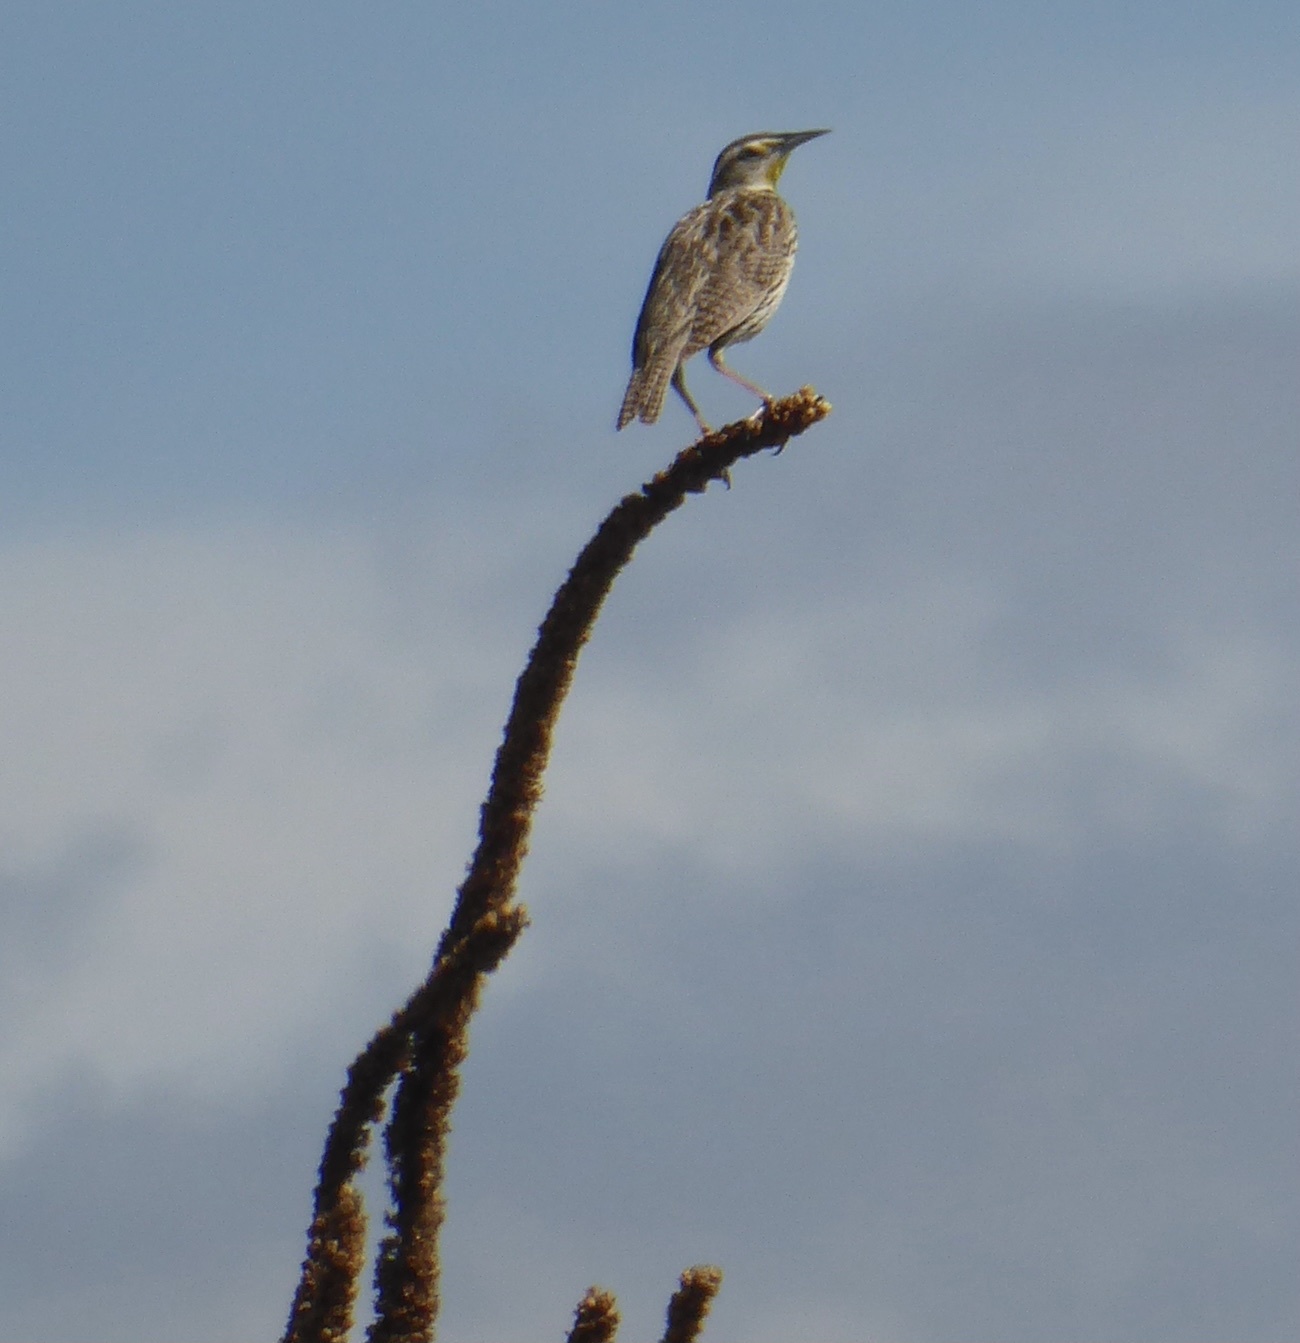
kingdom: Animalia
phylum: Chordata
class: Aves
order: Passeriformes
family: Icteridae
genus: Sturnella
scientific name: Sturnella neglecta
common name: Western meadowlark
